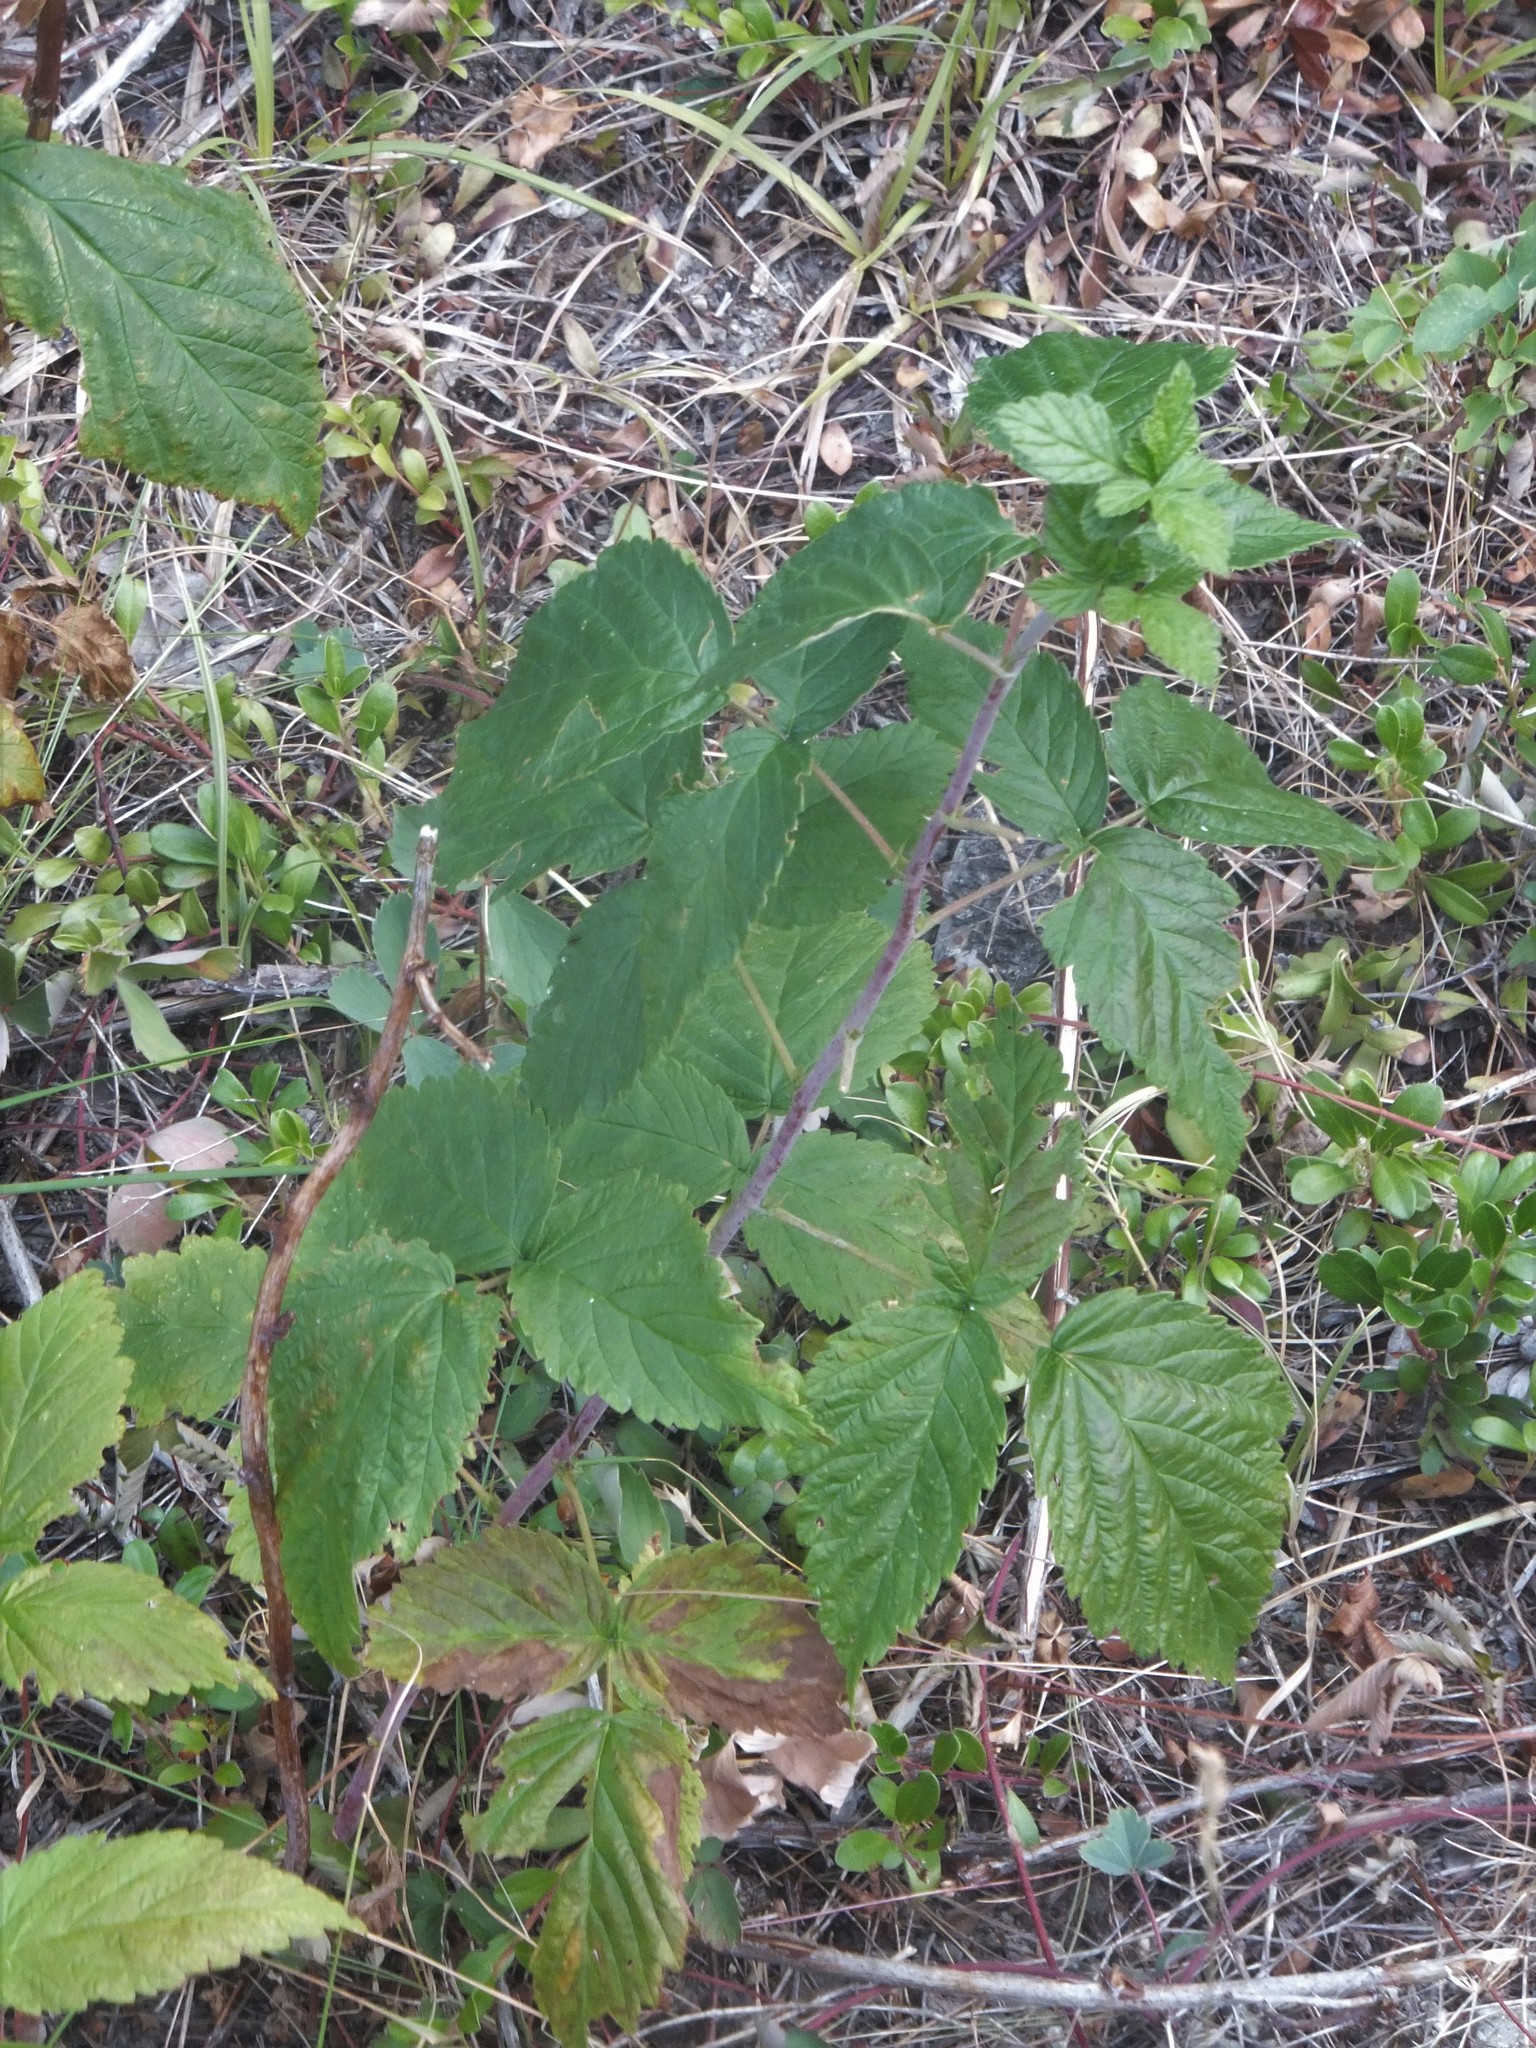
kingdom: Plantae
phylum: Tracheophyta
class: Magnoliopsida
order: Rosales
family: Rosaceae
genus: Rubus
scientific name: Rubus idaeus
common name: Raspberry
